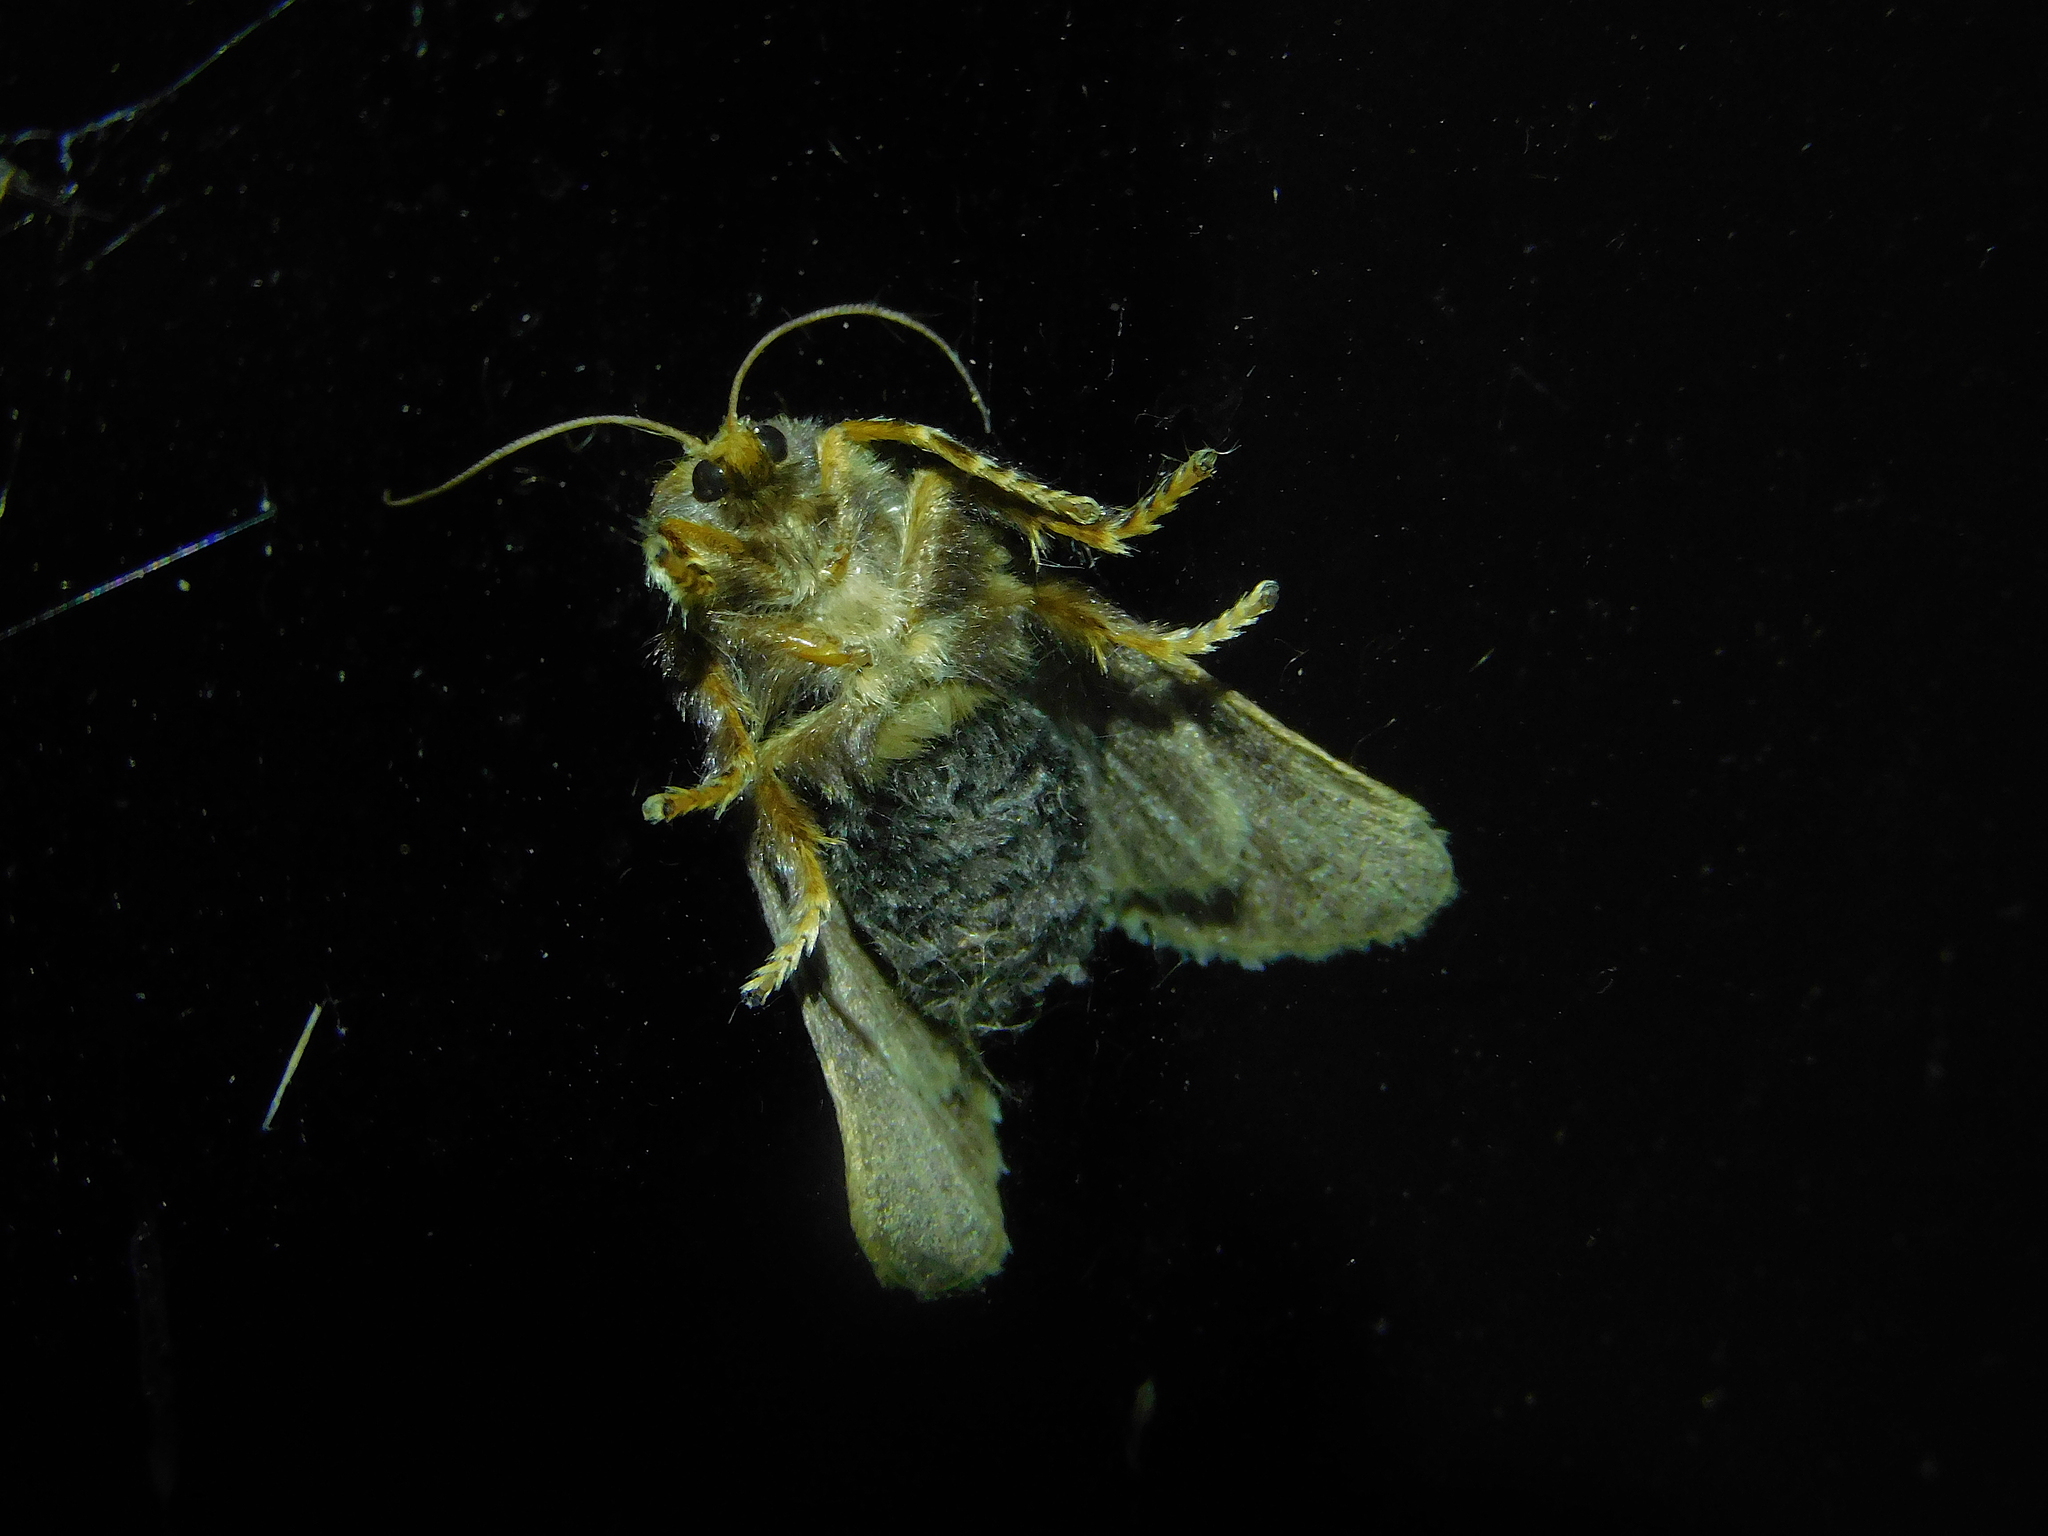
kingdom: Animalia
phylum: Arthropoda
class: Insecta
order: Lepidoptera
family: Limacodidae
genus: Doratifera
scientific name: Doratifera oxleyi
